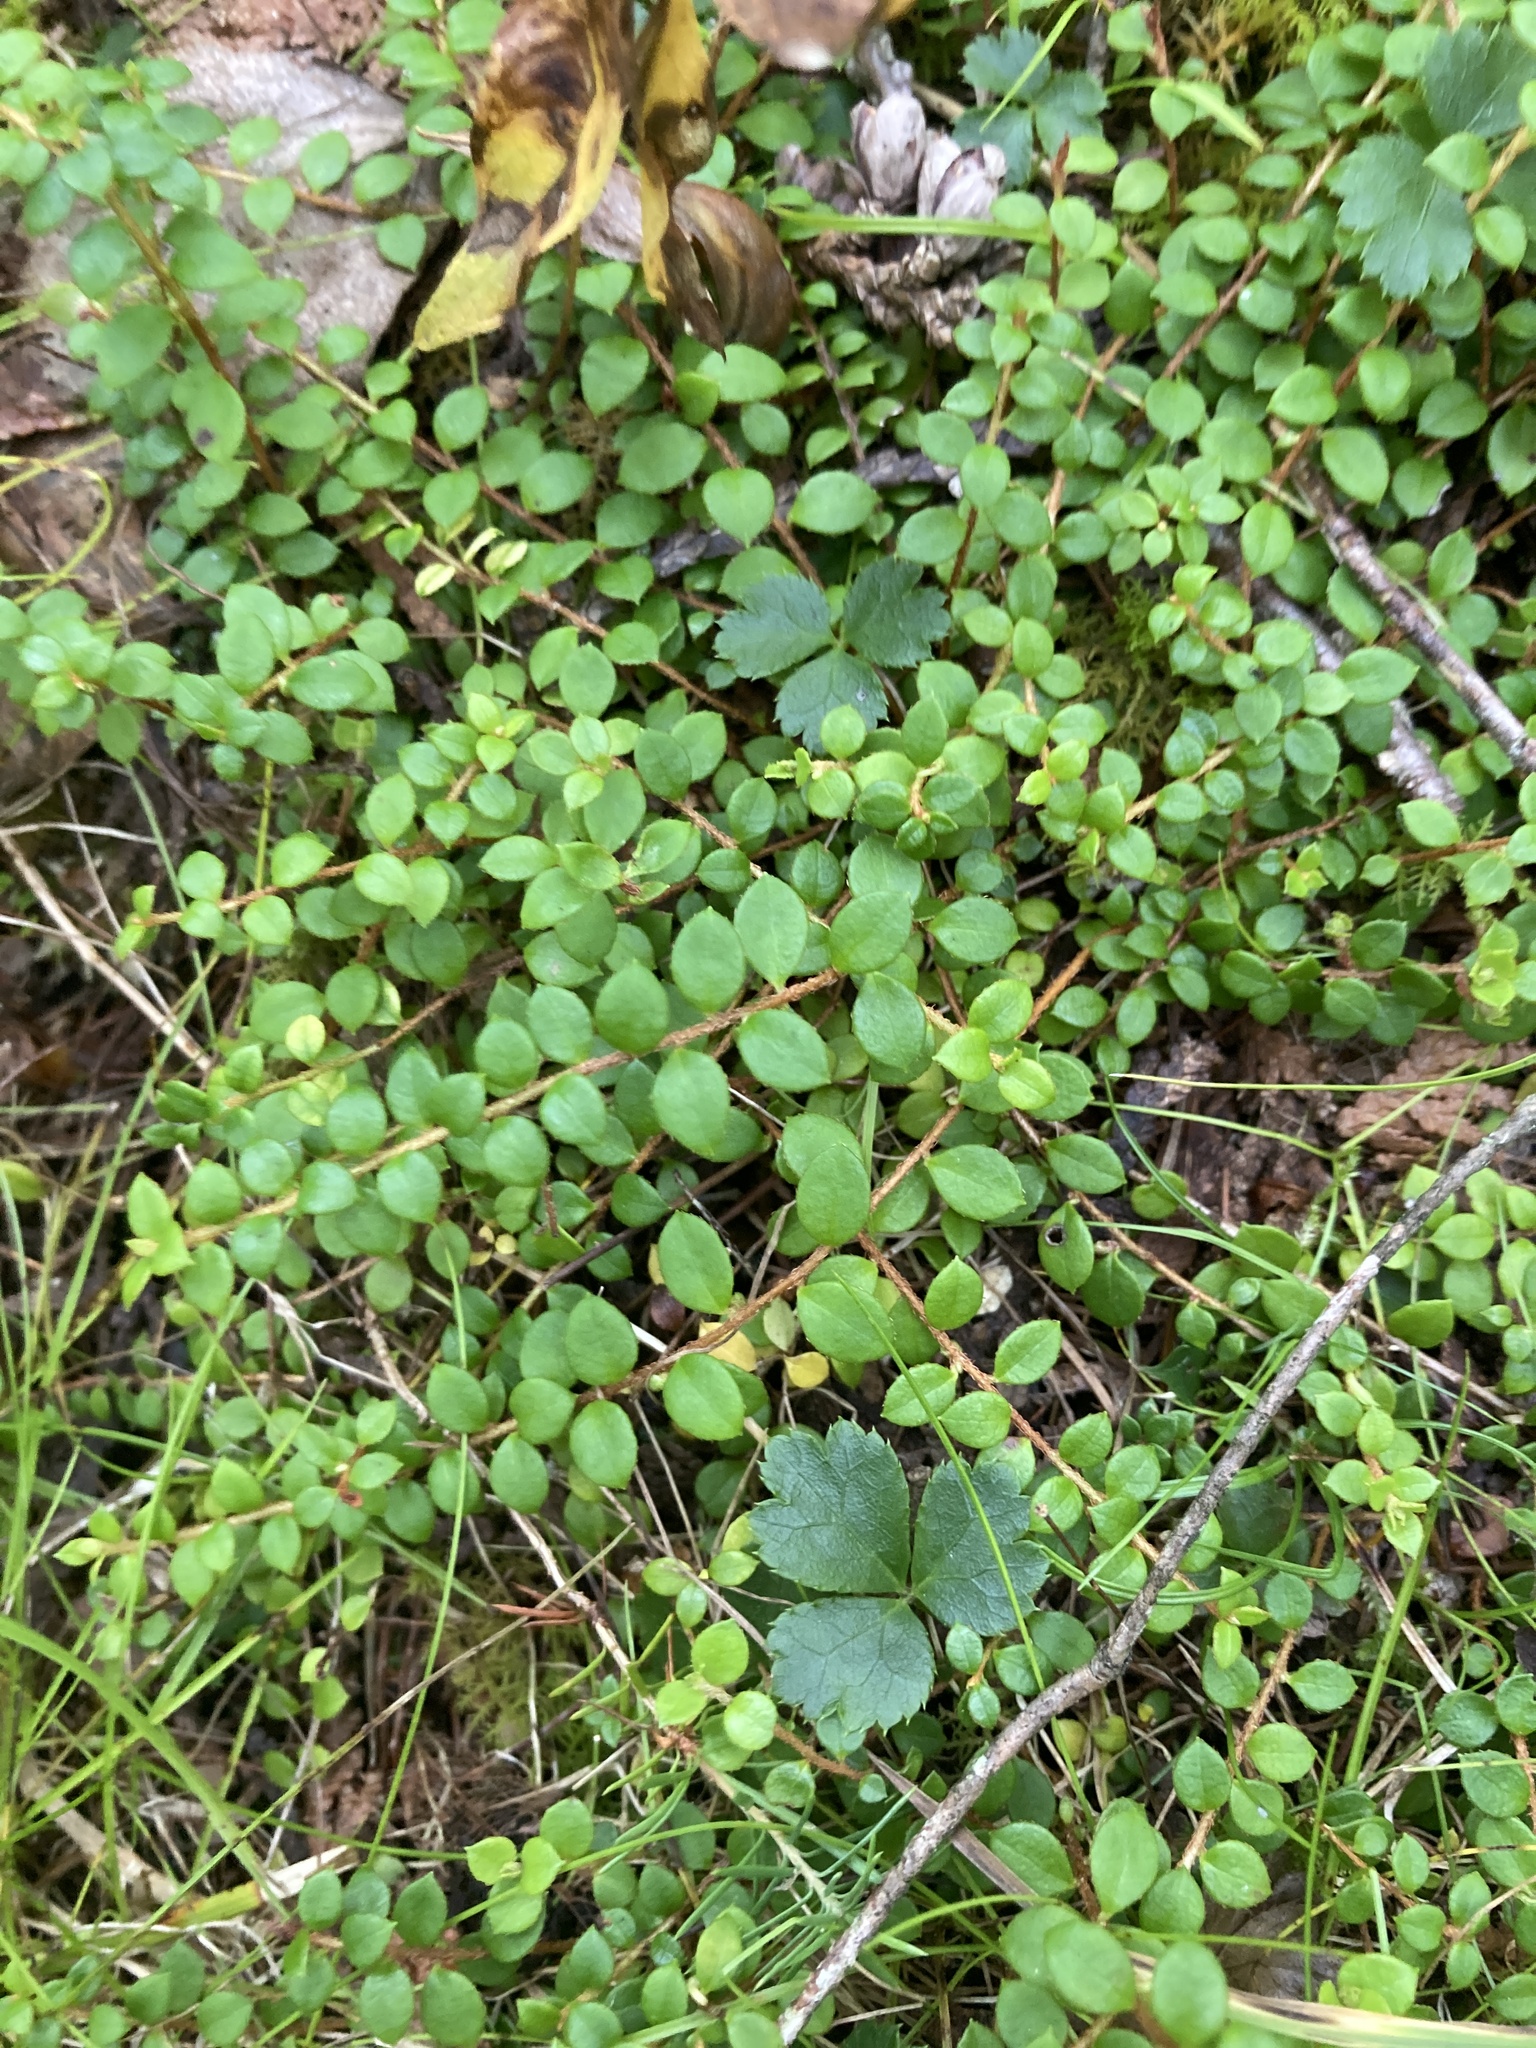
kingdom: Plantae
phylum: Tracheophyta
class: Magnoliopsida
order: Ericales
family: Ericaceae
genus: Gaultheria
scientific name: Gaultheria hispidula
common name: Cancer wintergreen
